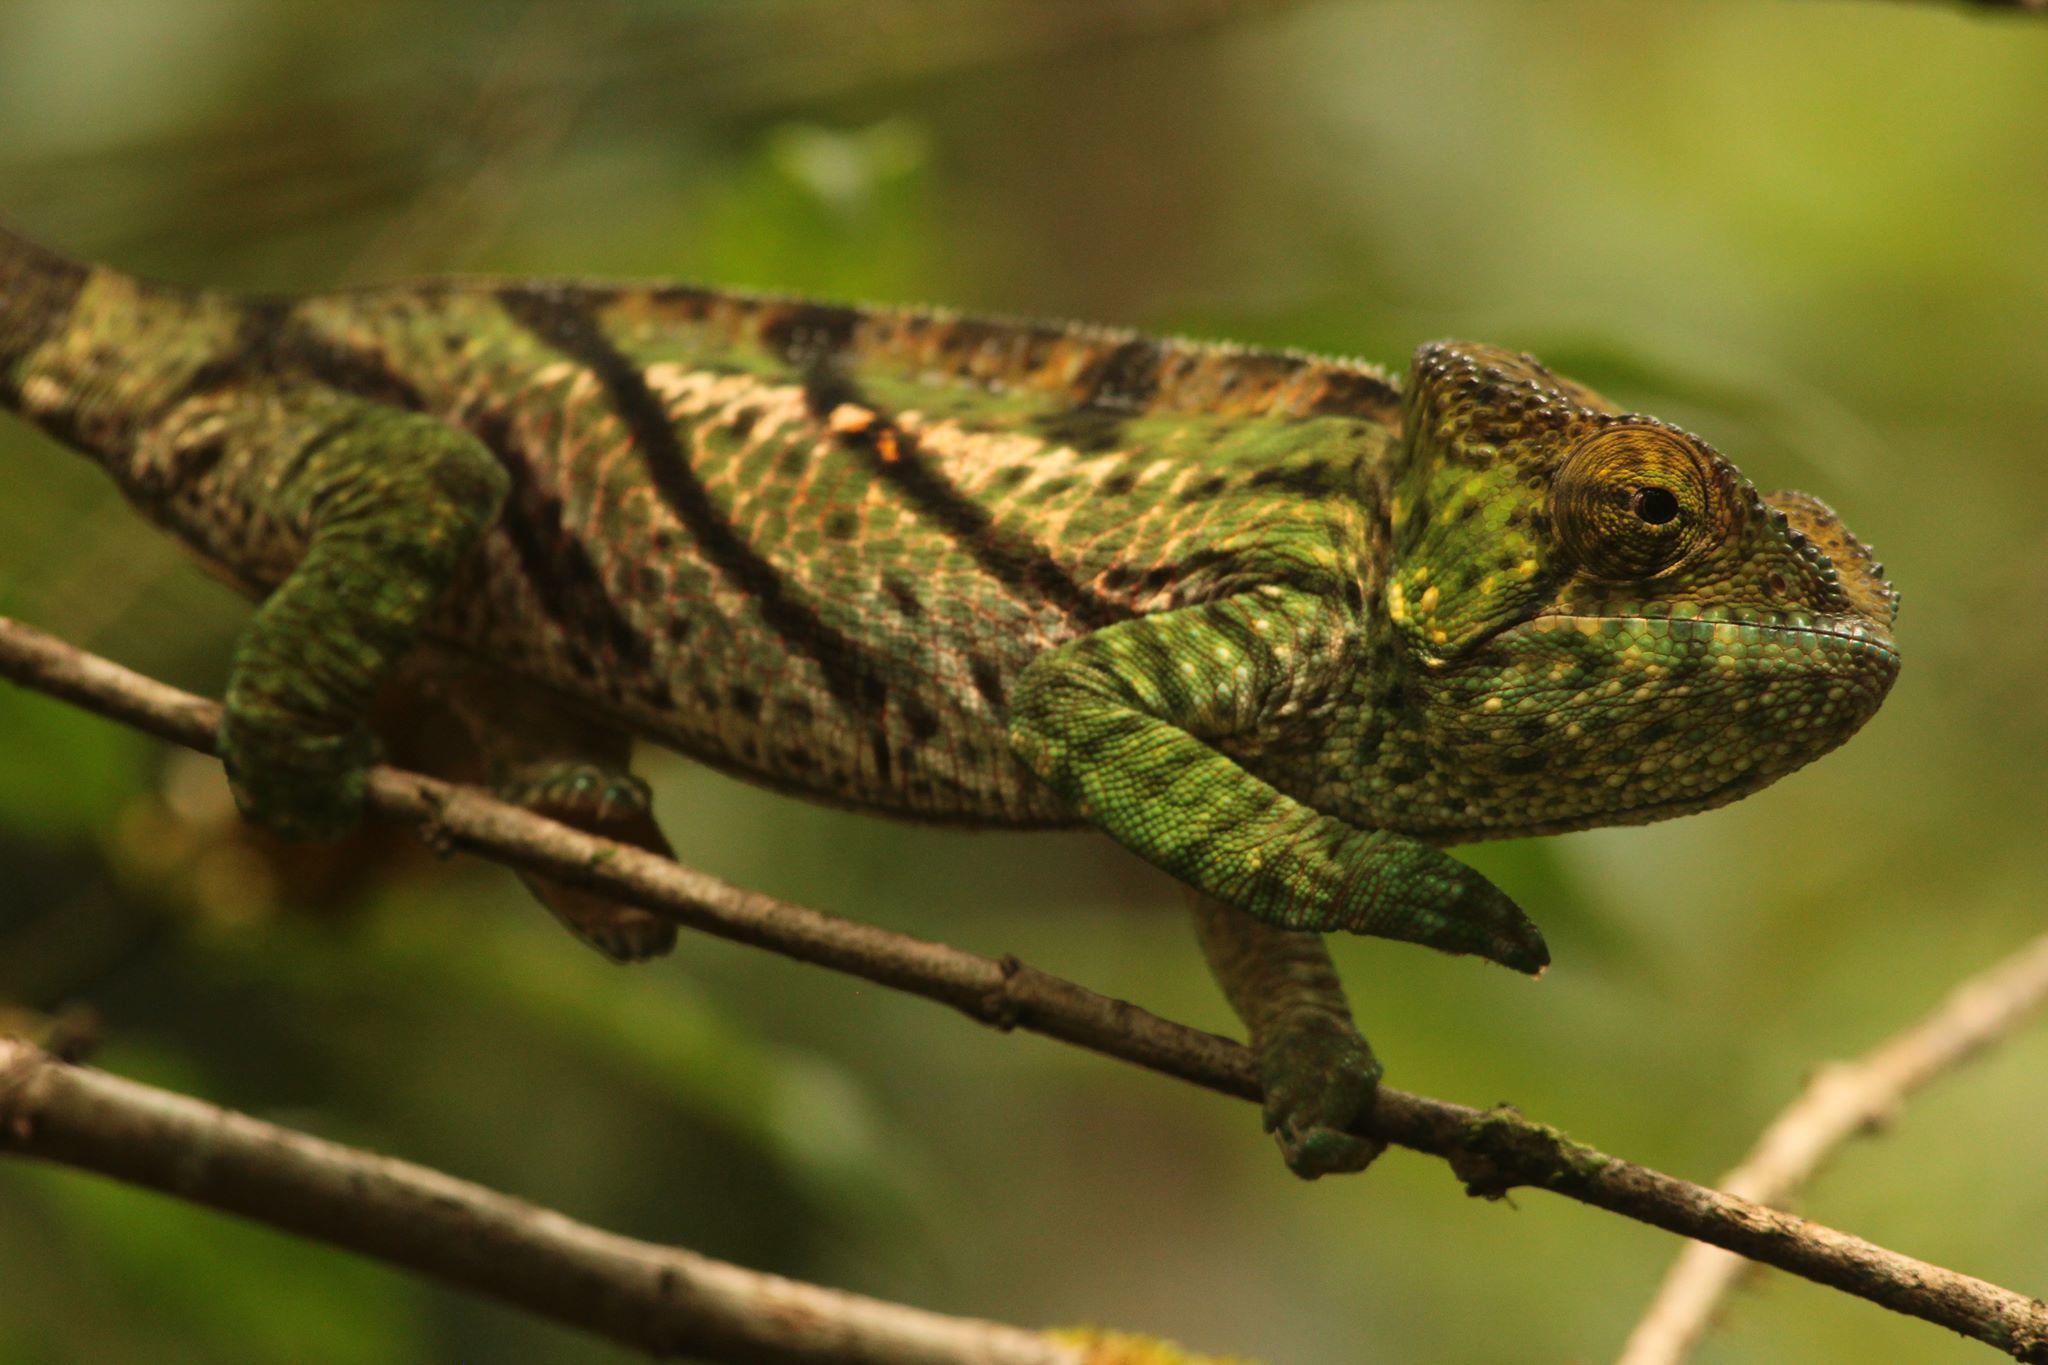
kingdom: Animalia
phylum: Chordata
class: Squamata
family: Chamaeleonidae
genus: Calumma
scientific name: Calumma parsonii
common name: Parson's chameleon
